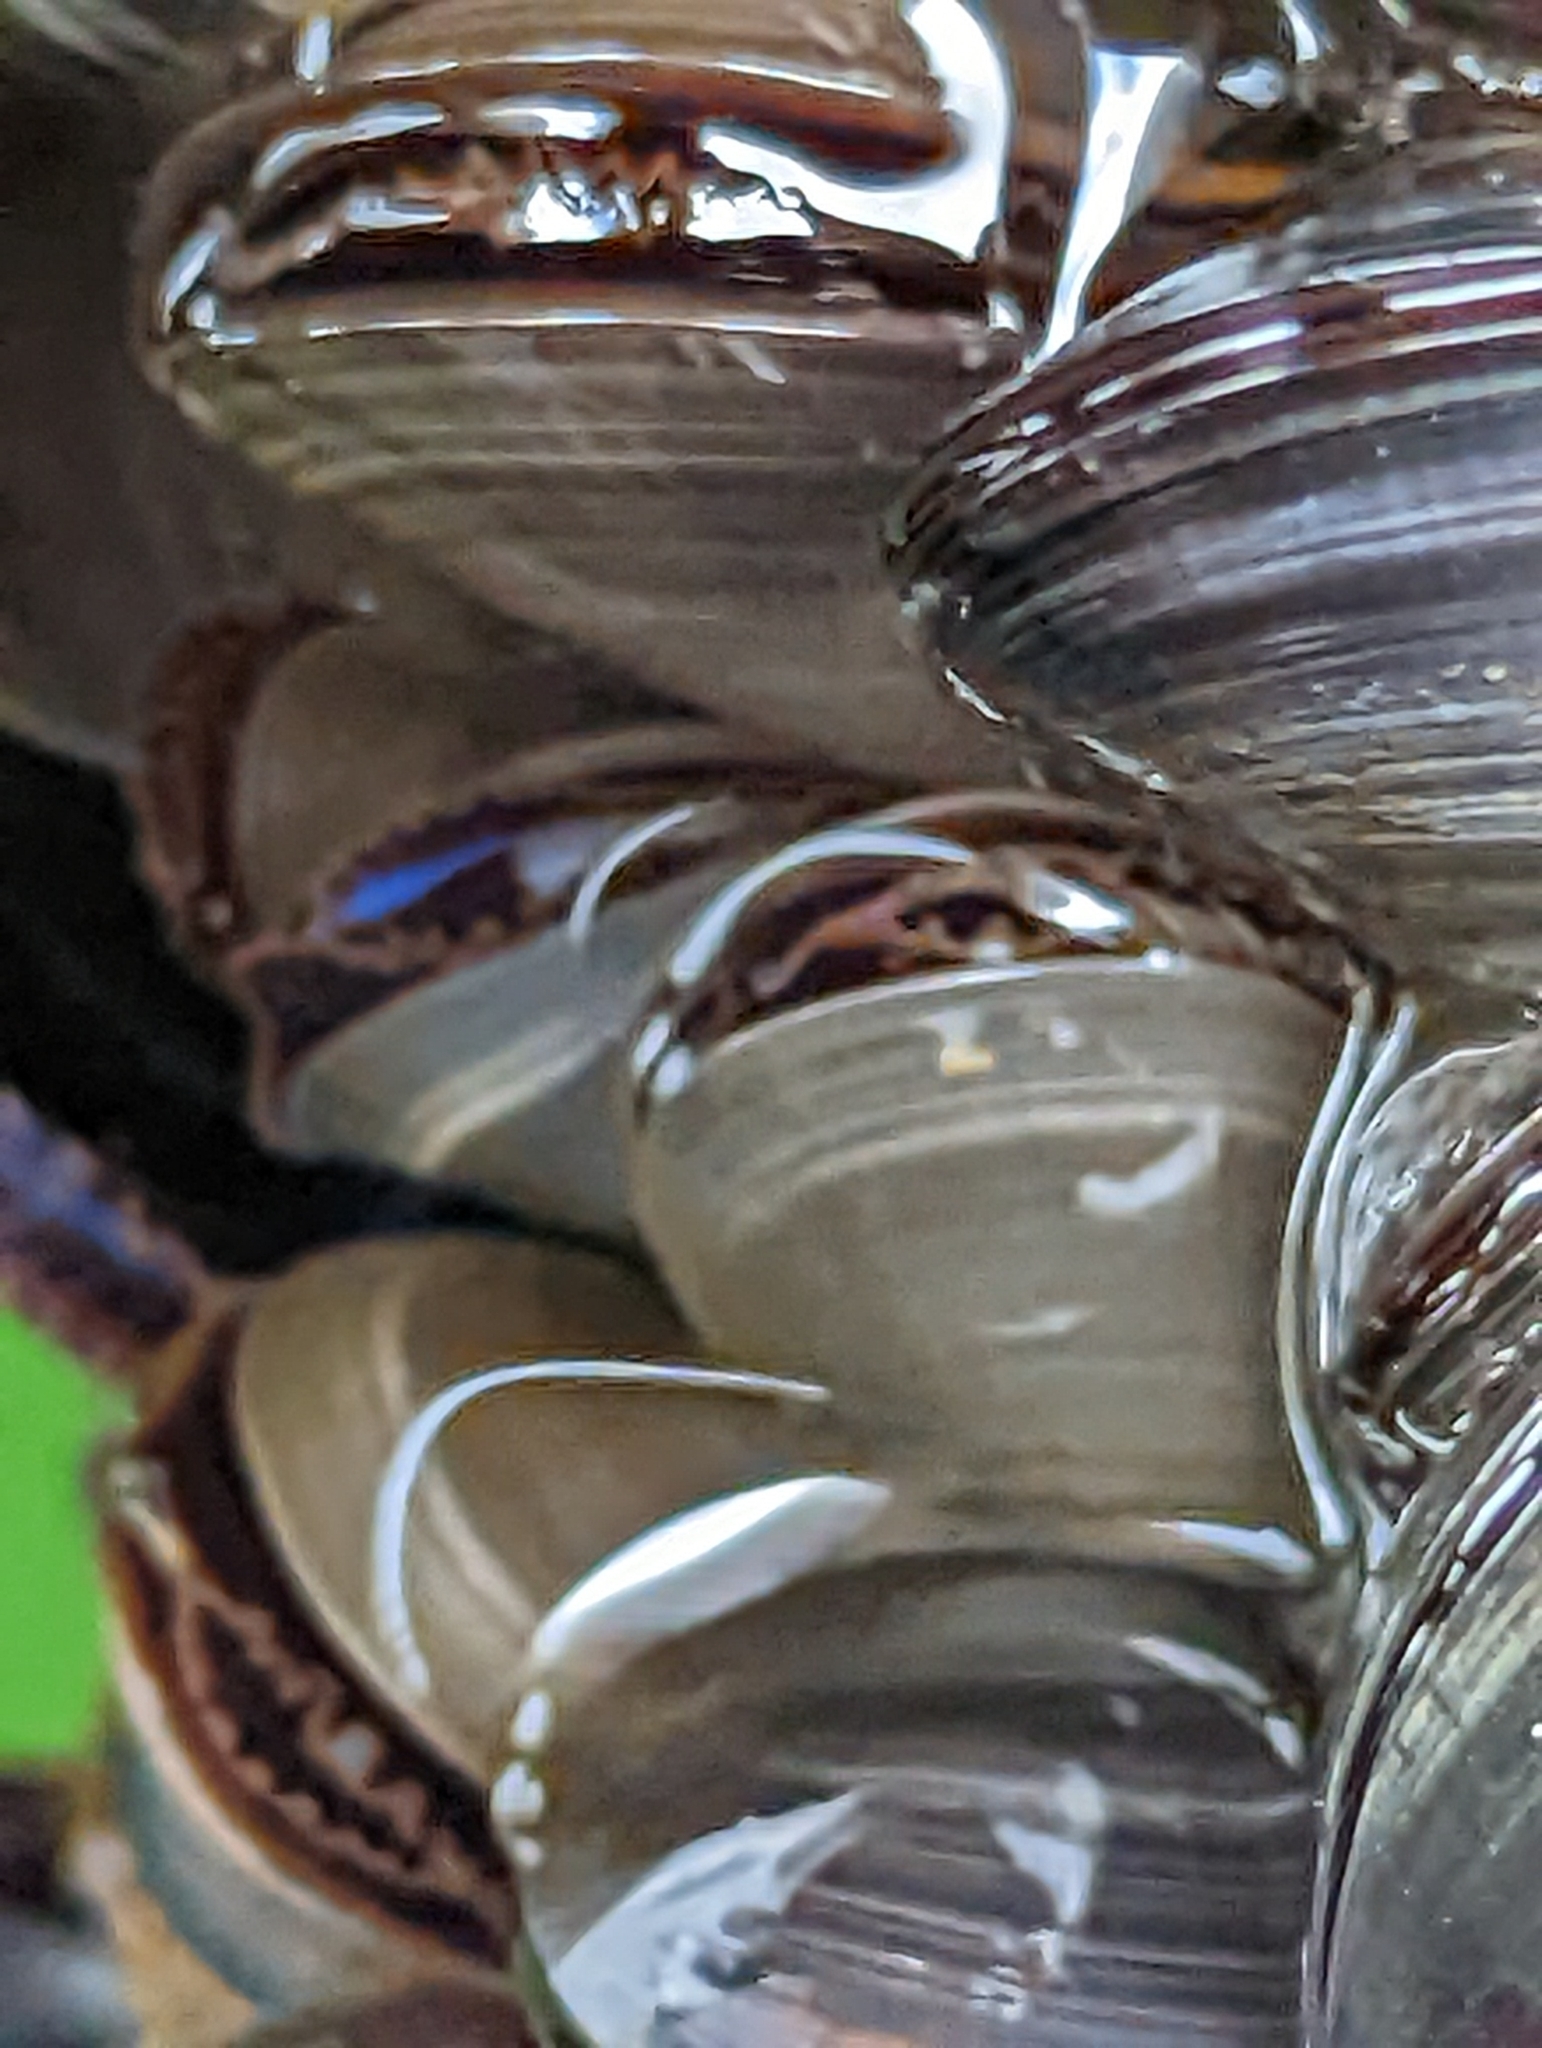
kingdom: Animalia
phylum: Mollusca
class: Bivalvia
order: Mytilida
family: Mytilidae
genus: Mytilus
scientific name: Mytilus trossulus
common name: Northern blue mussel
